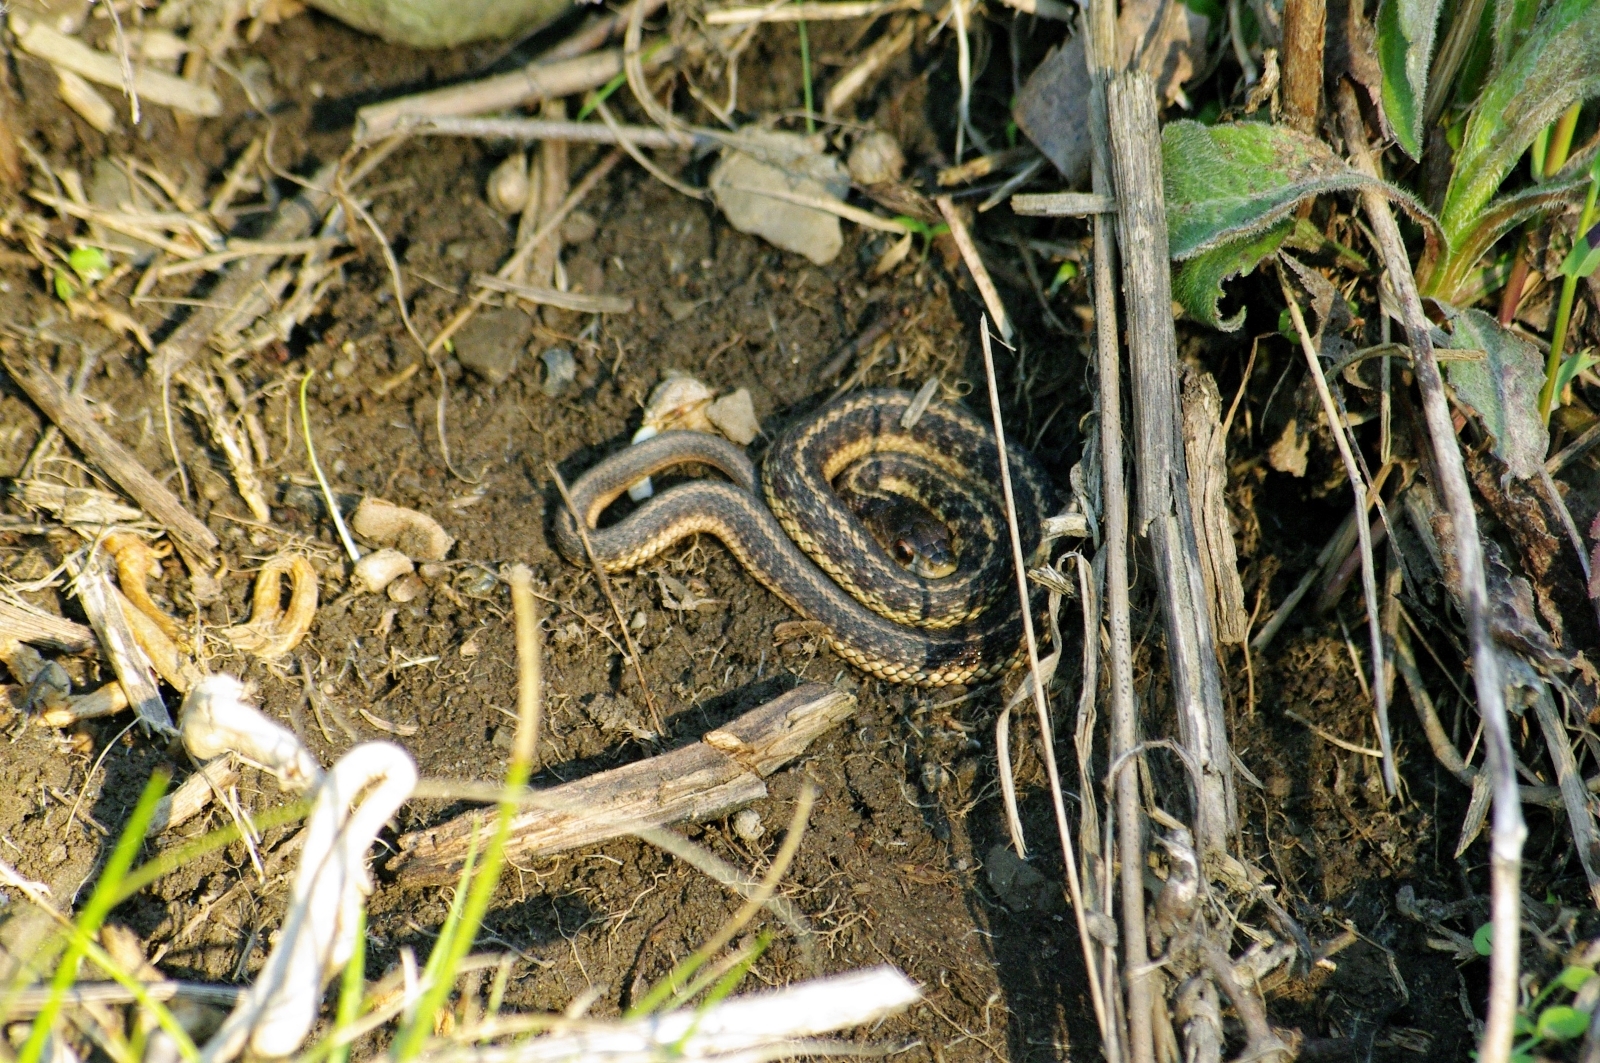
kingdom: Animalia
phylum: Chordata
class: Squamata
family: Colubridae
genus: Thamnophis
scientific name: Thamnophis sirtalis
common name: Common garter snake
